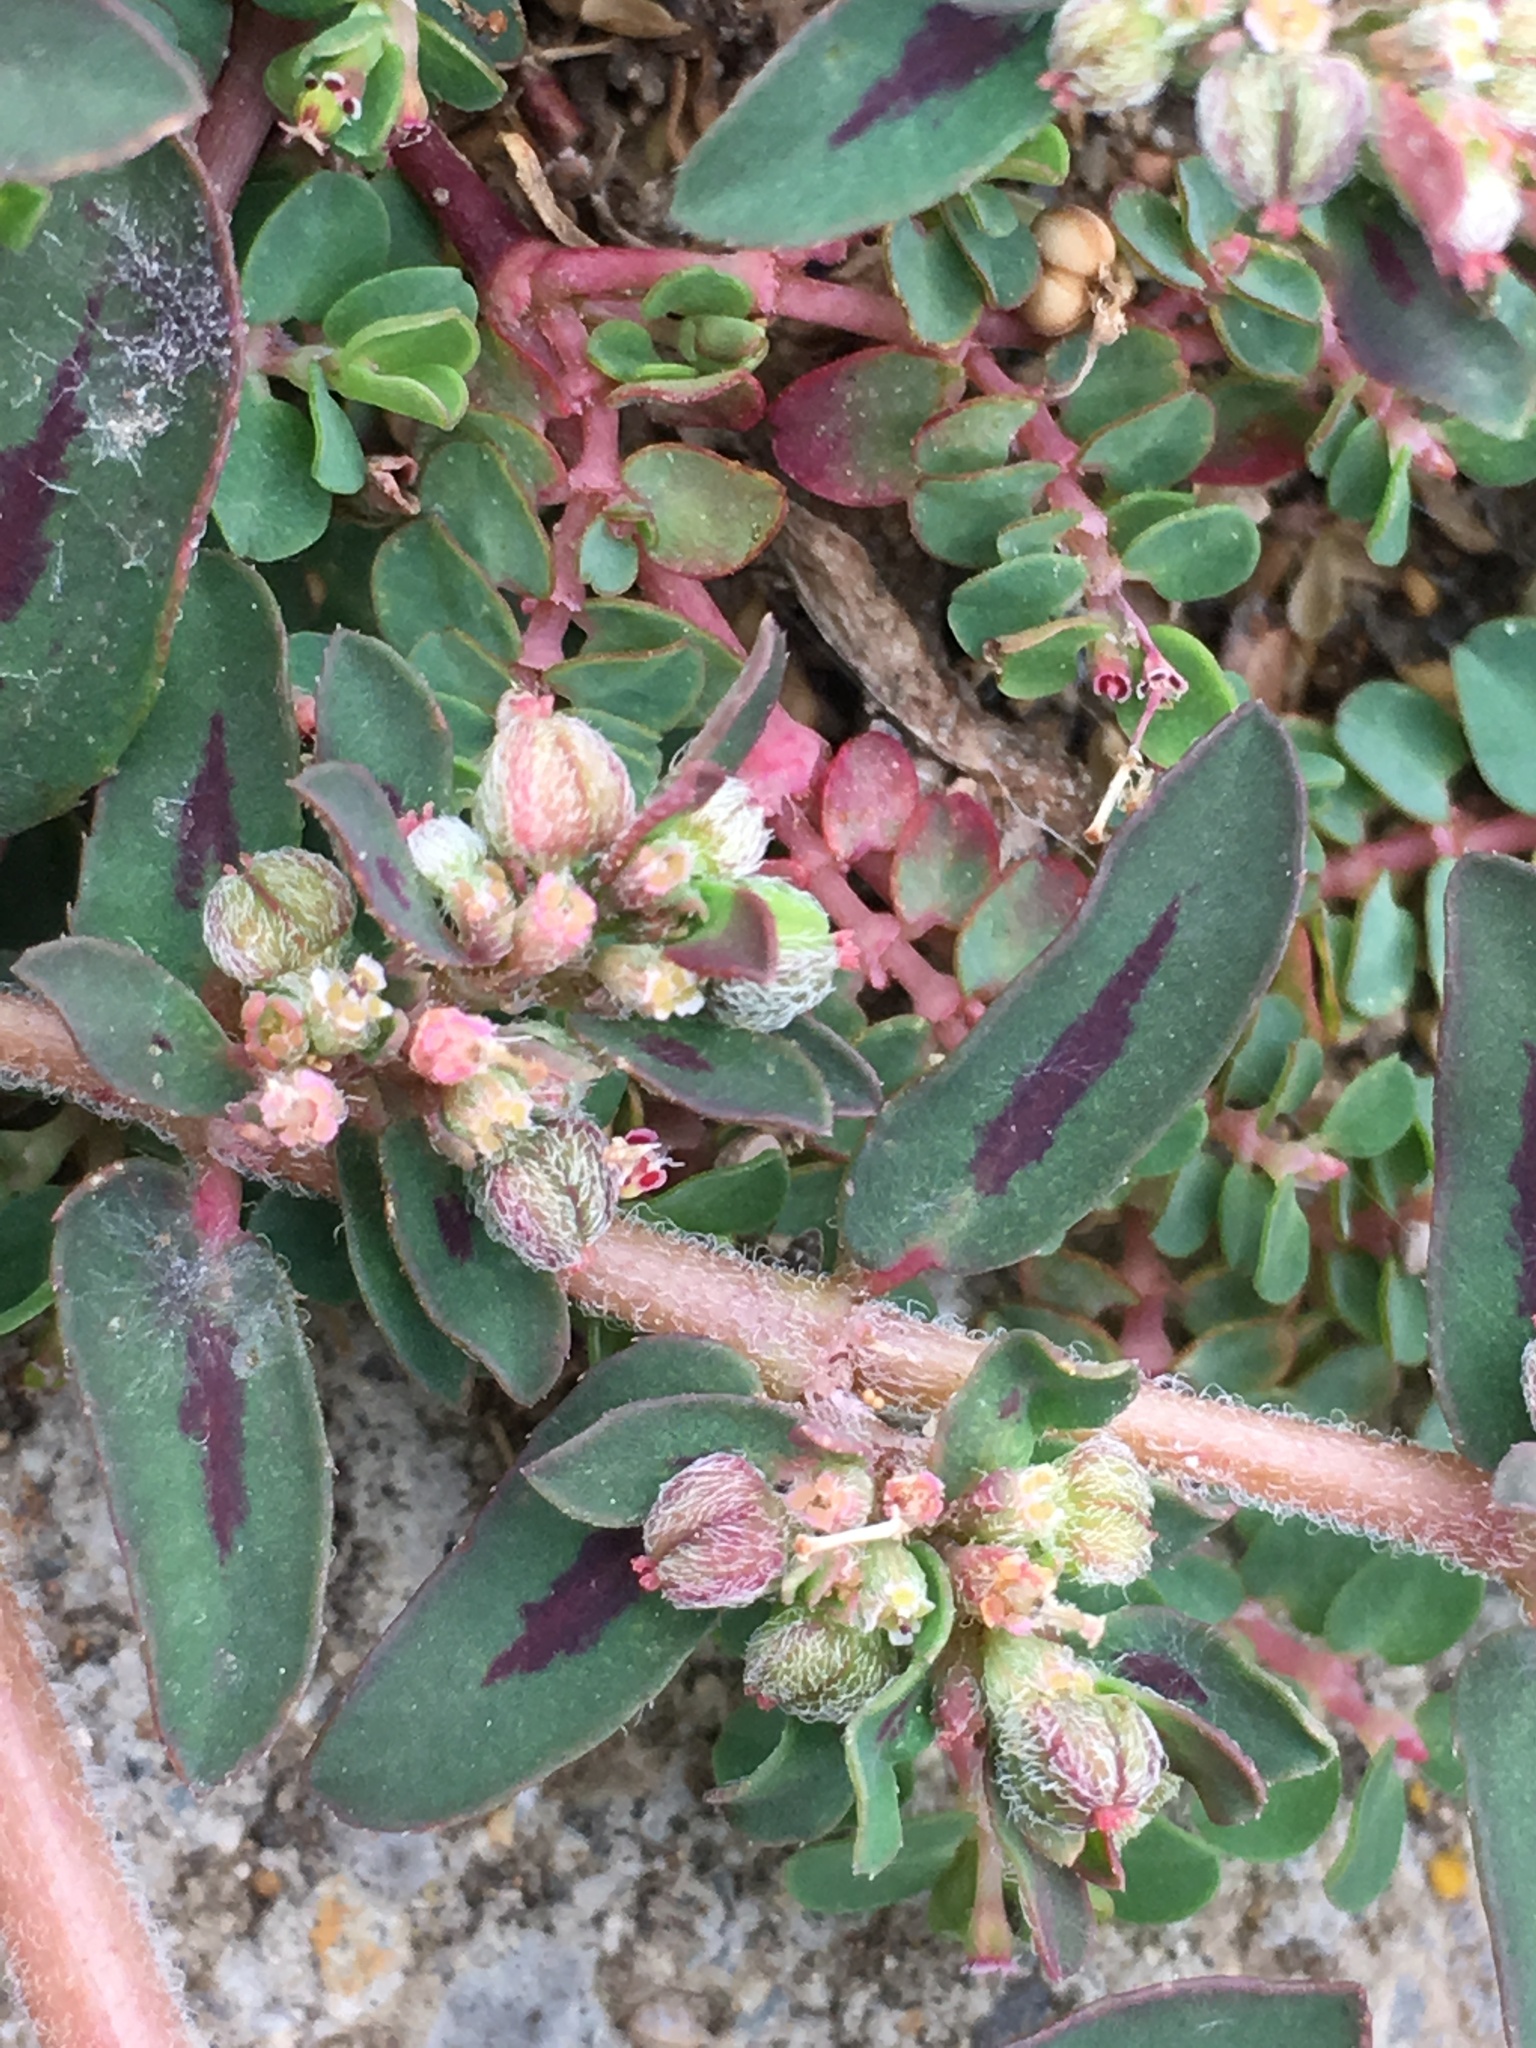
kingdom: Plantae
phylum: Tracheophyta
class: Magnoliopsida
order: Malpighiales
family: Euphorbiaceae
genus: Euphorbia
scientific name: Euphorbia maculata
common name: Spotted spurge
